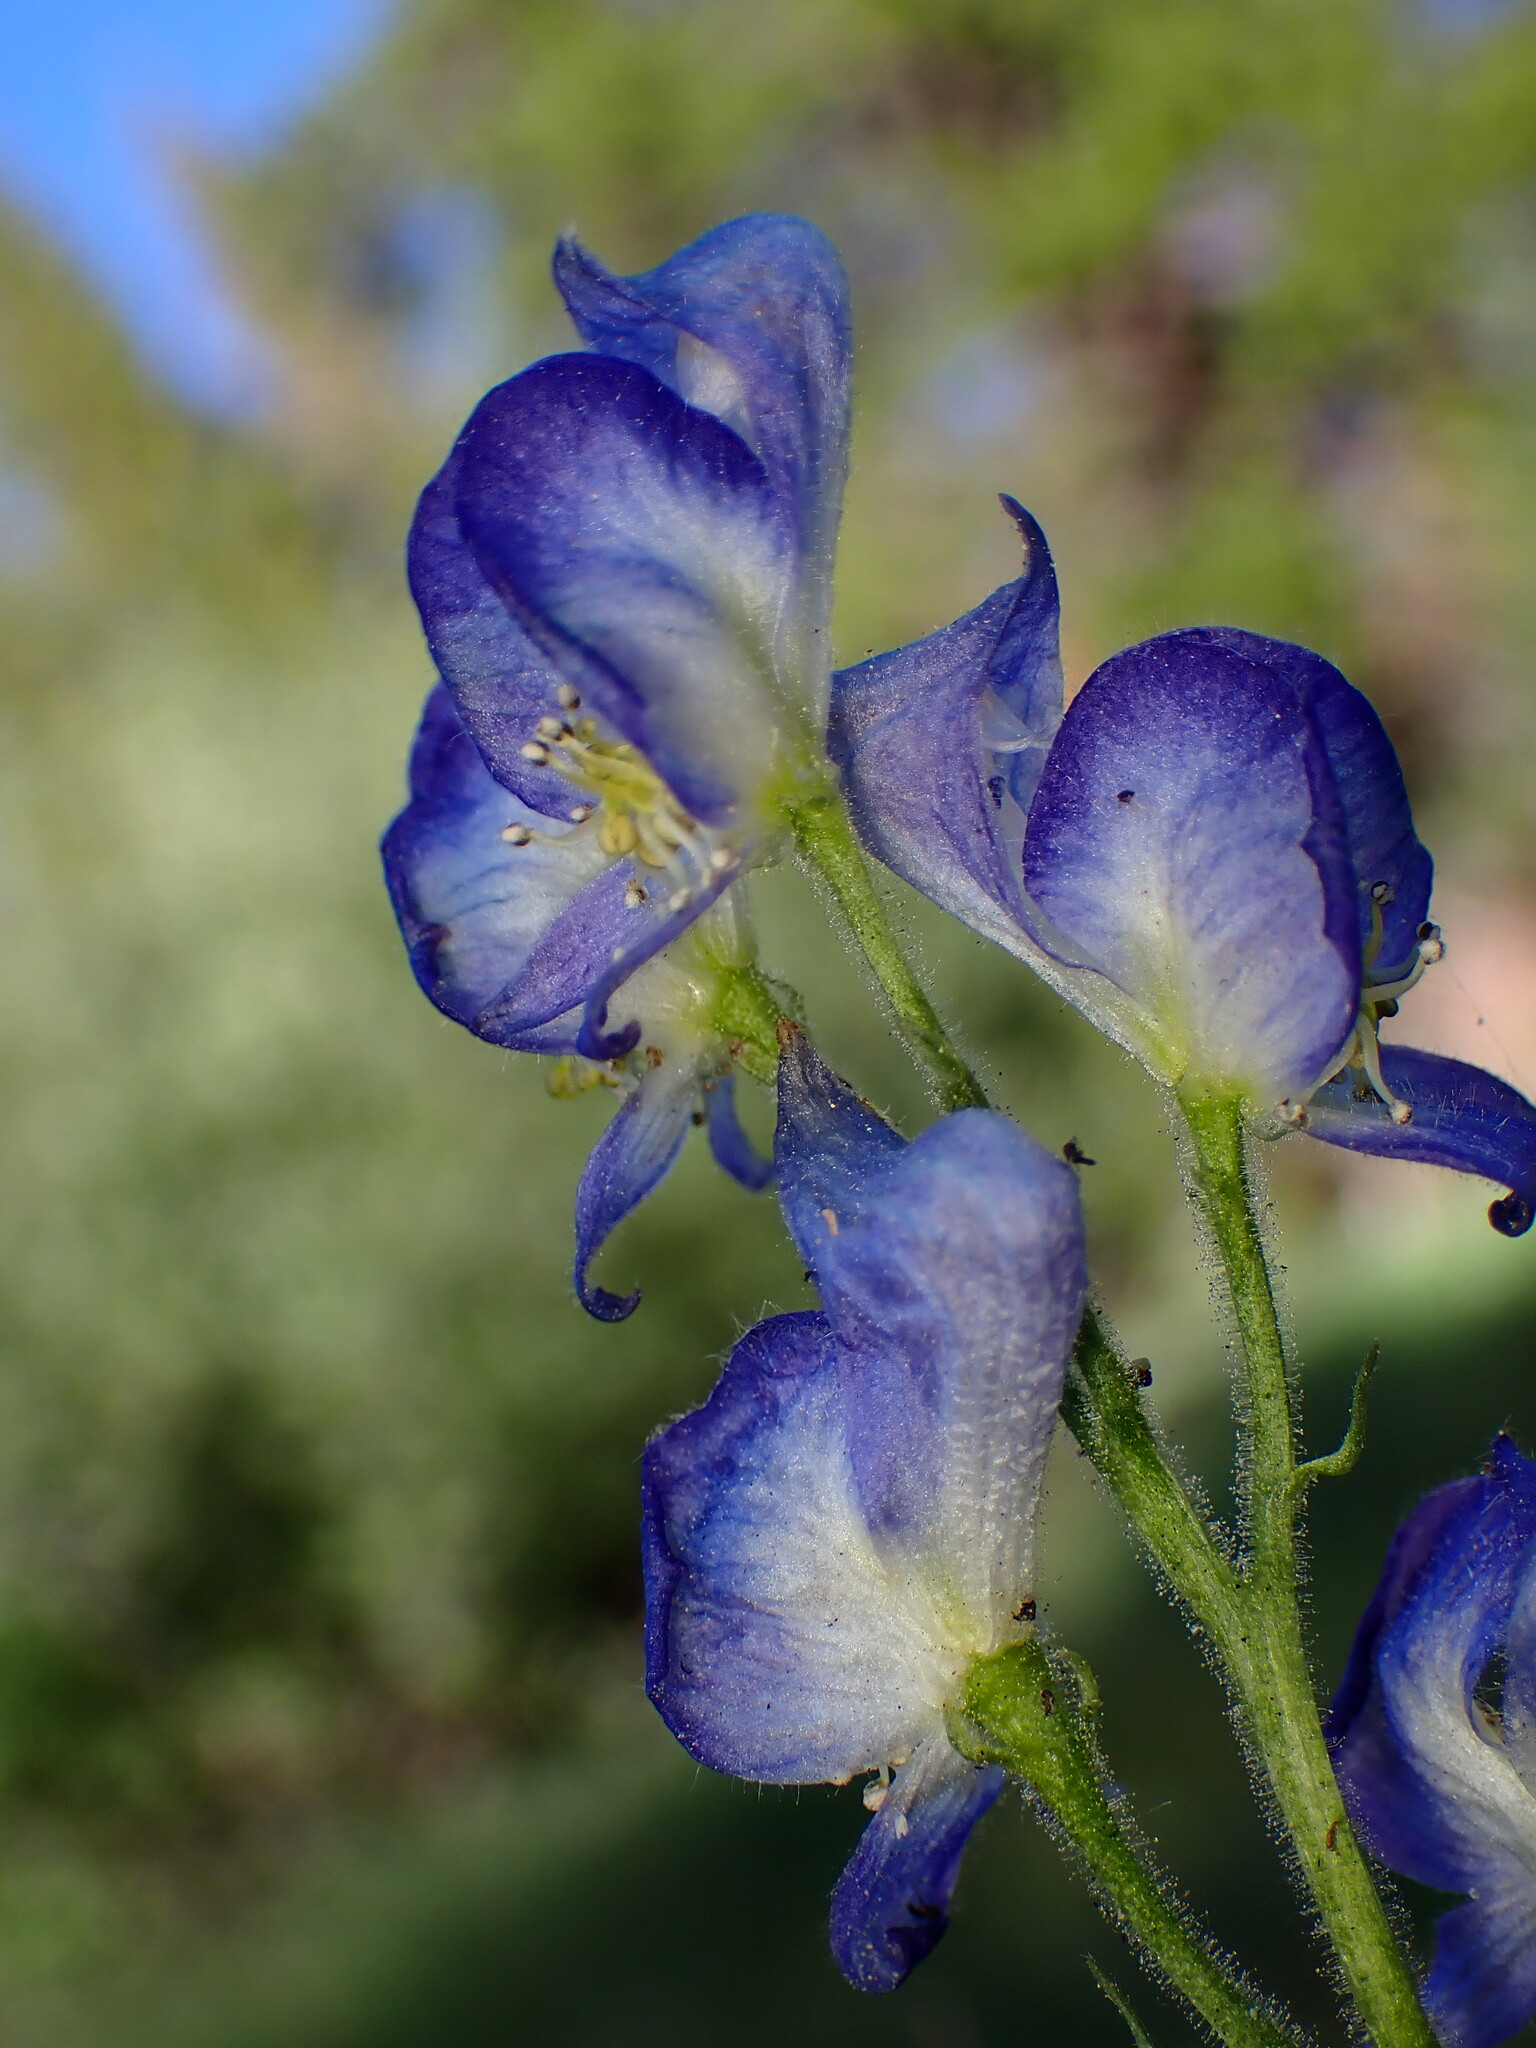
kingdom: Plantae
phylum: Tracheophyta
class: Magnoliopsida
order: Ranunculales
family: Ranunculaceae
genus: Aconitum
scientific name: Aconitum columbianum
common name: Columbia aconite
